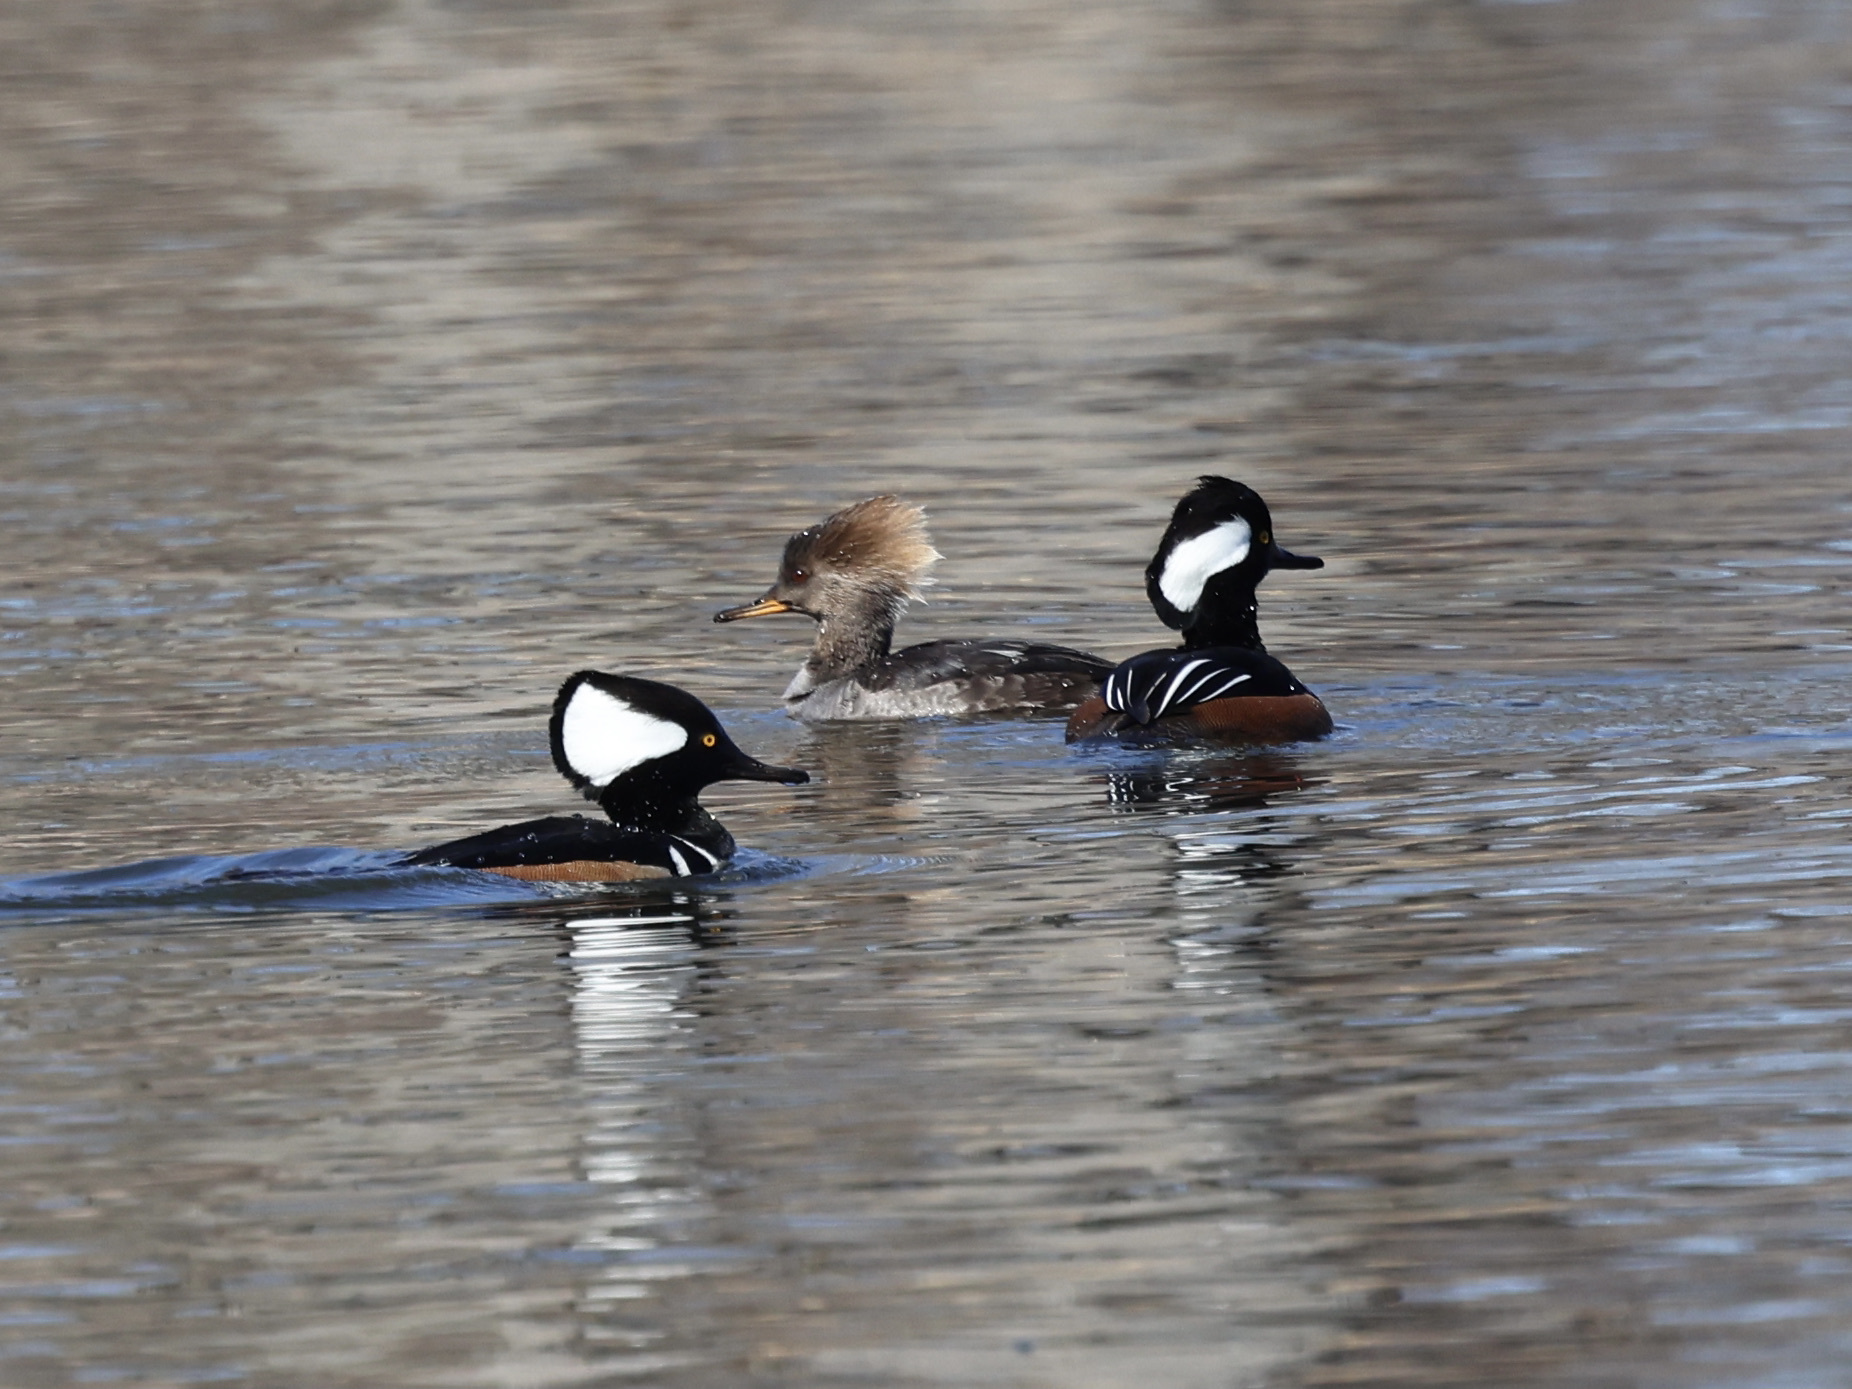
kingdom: Animalia
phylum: Chordata
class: Aves
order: Anseriformes
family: Anatidae
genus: Lophodytes
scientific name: Lophodytes cucullatus
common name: Hooded merganser
